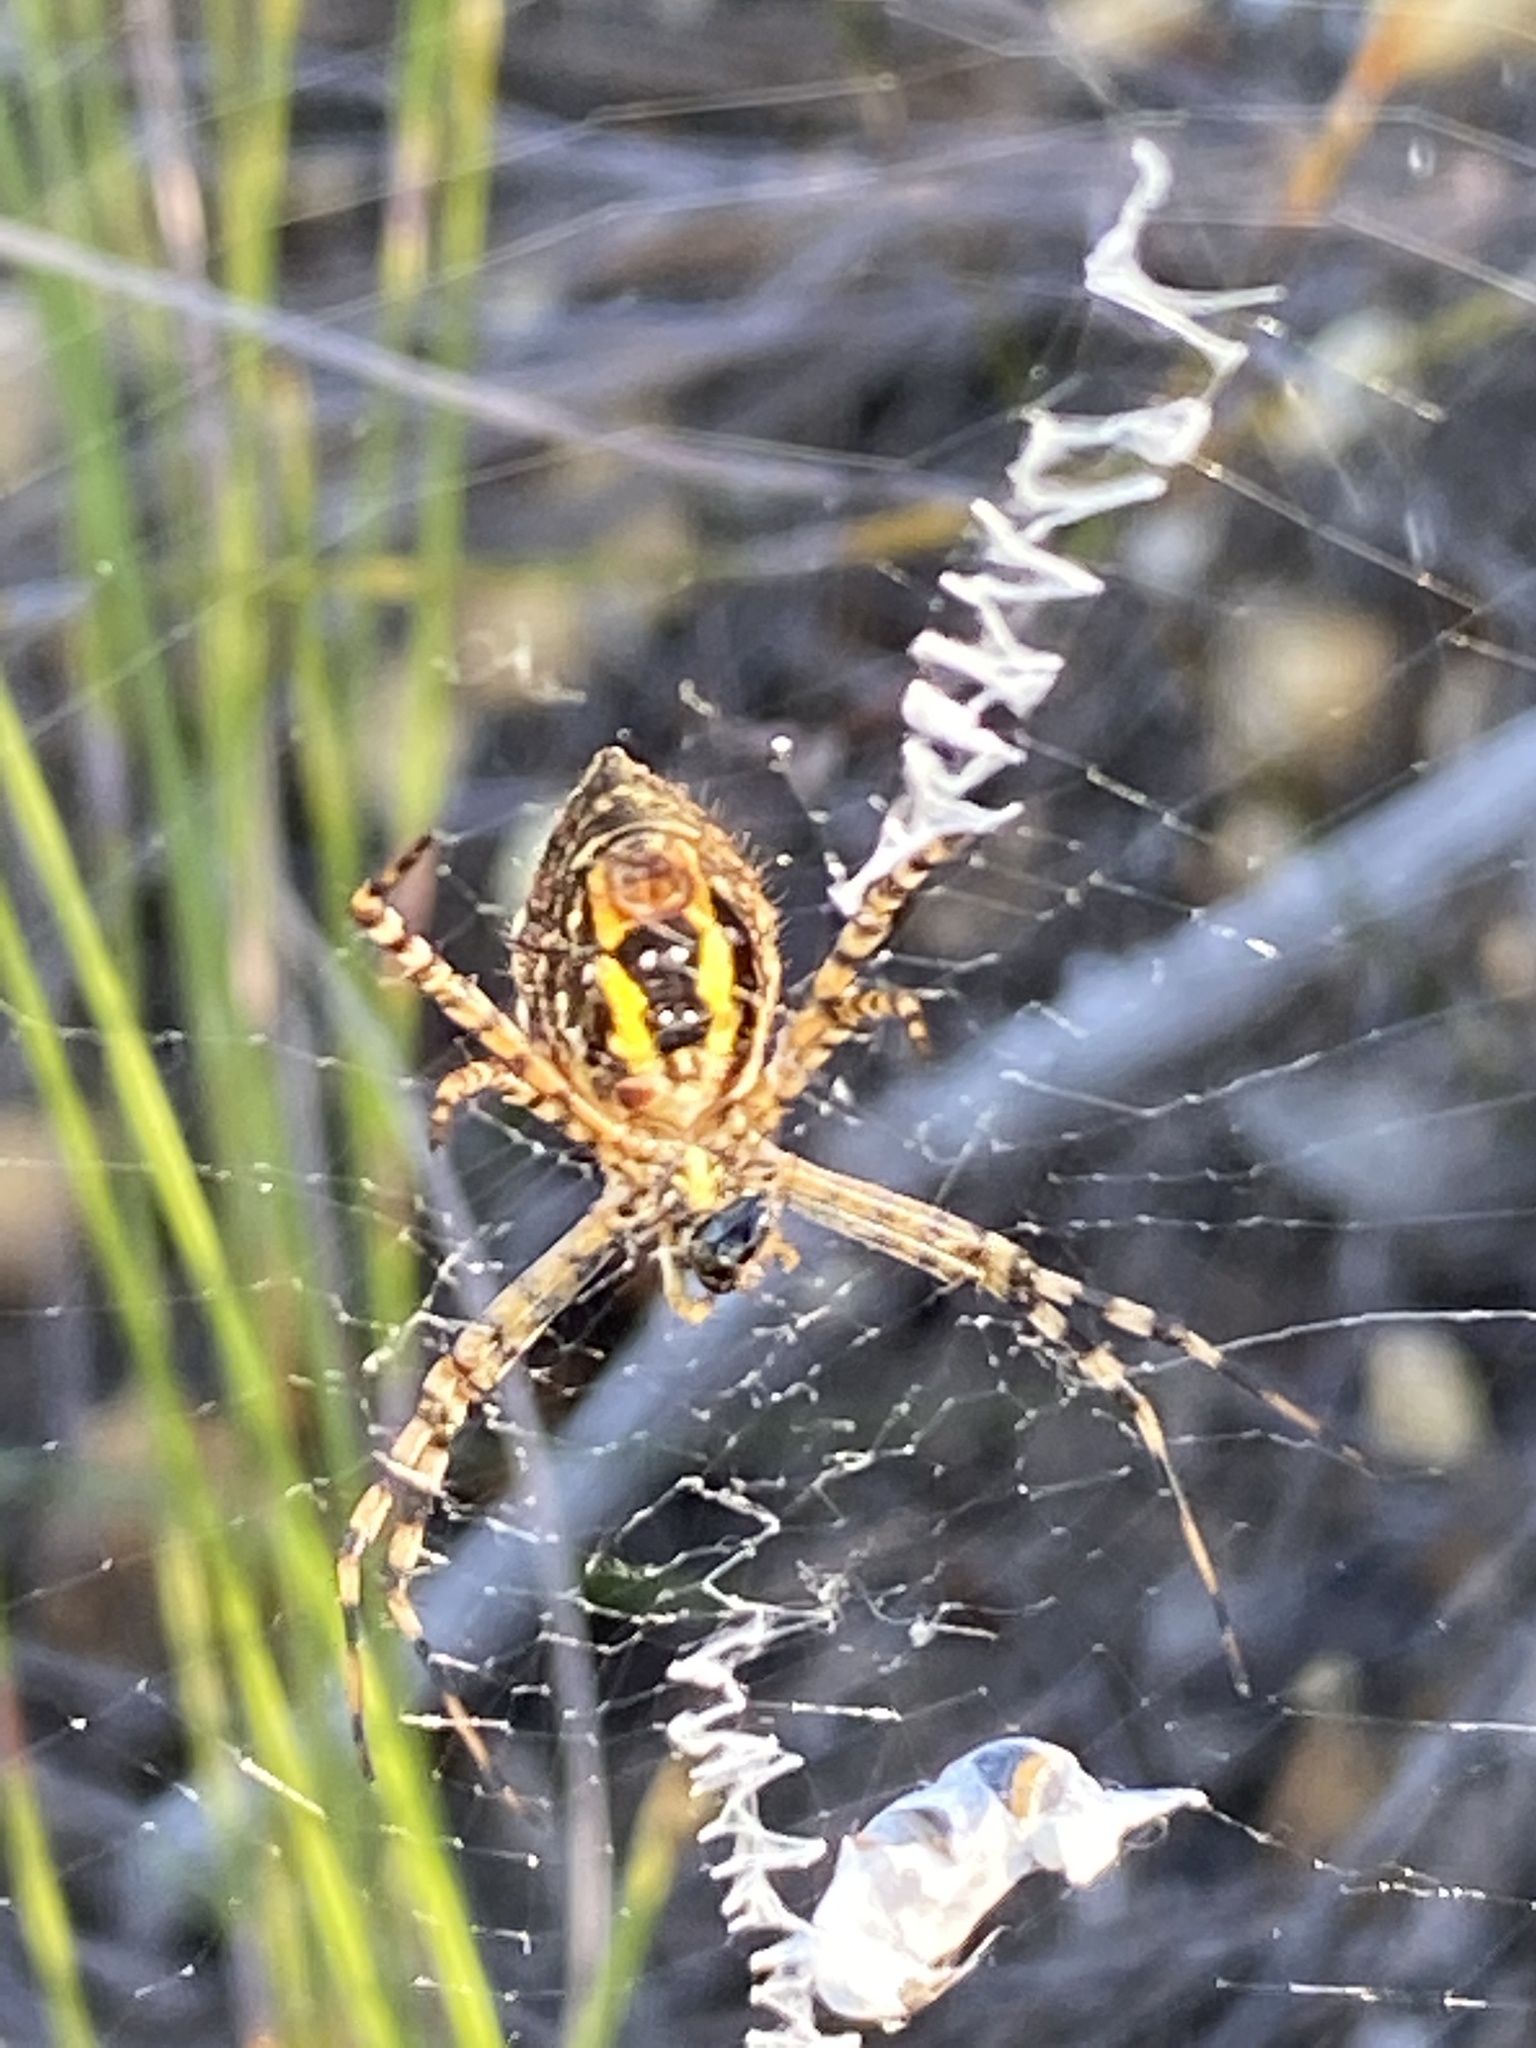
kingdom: Animalia
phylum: Arthropoda
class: Arachnida
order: Araneae
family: Araneidae
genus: Argiope
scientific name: Argiope trifasciata
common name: Banded garden spider
